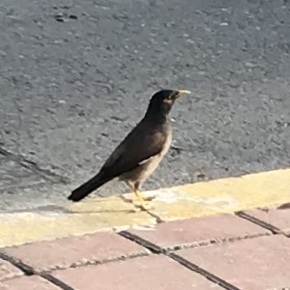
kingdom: Animalia
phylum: Chordata
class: Aves
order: Passeriformes
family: Sturnidae
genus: Acridotheres
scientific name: Acridotheres tristis
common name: Common myna
